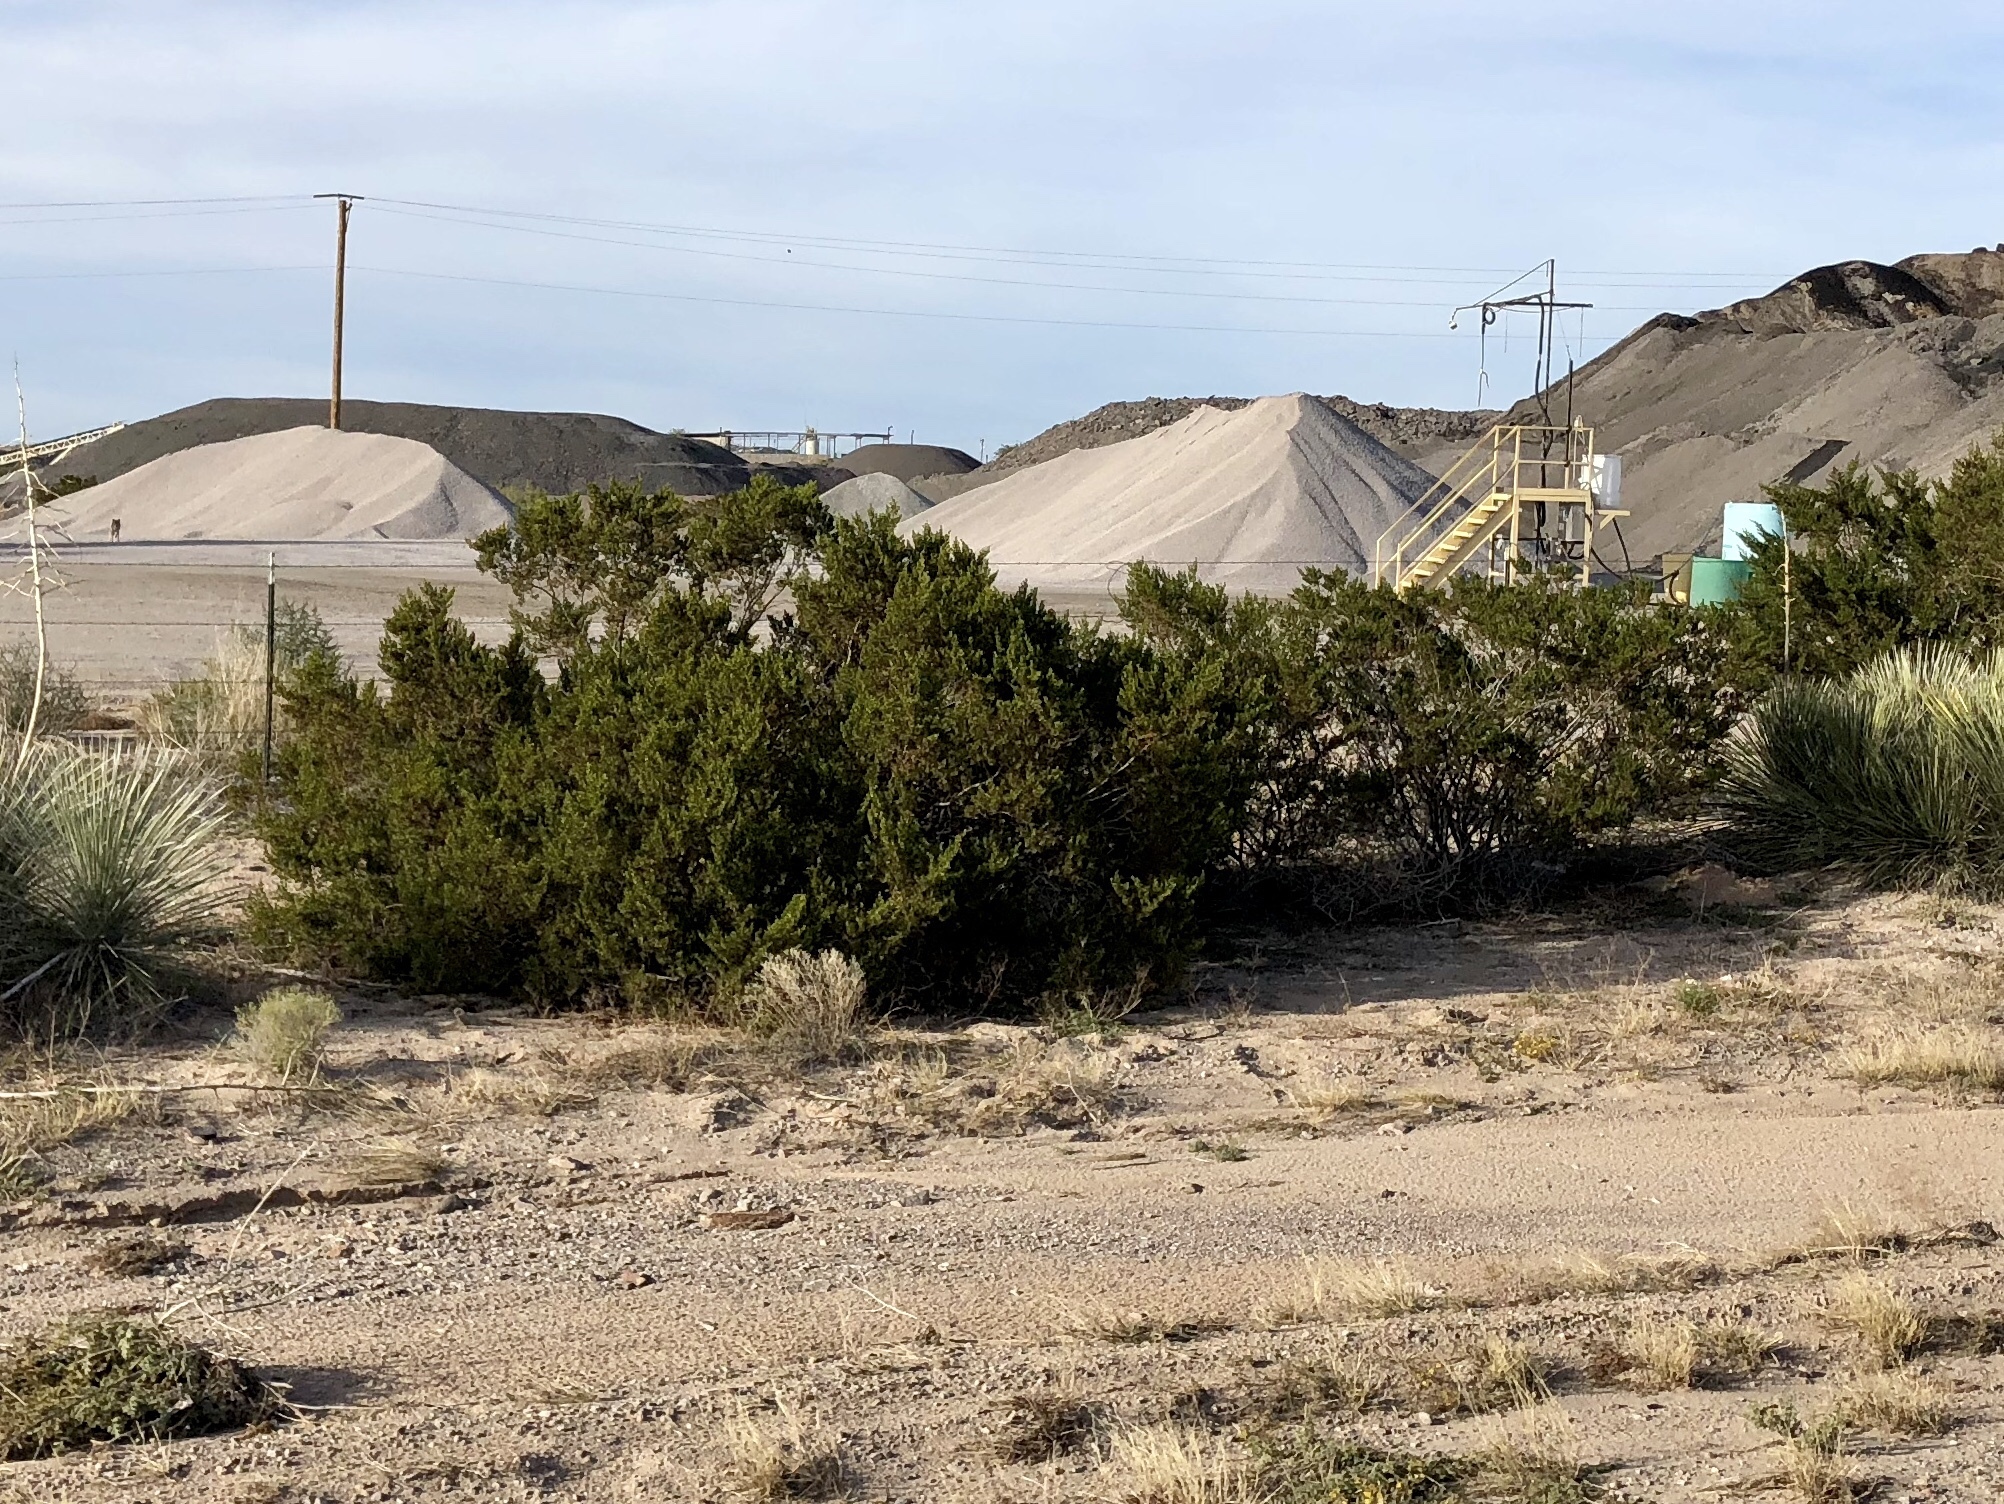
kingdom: Plantae
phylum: Tracheophyta
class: Magnoliopsida
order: Zygophyllales
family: Zygophyllaceae
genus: Larrea
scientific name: Larrea tridentata
